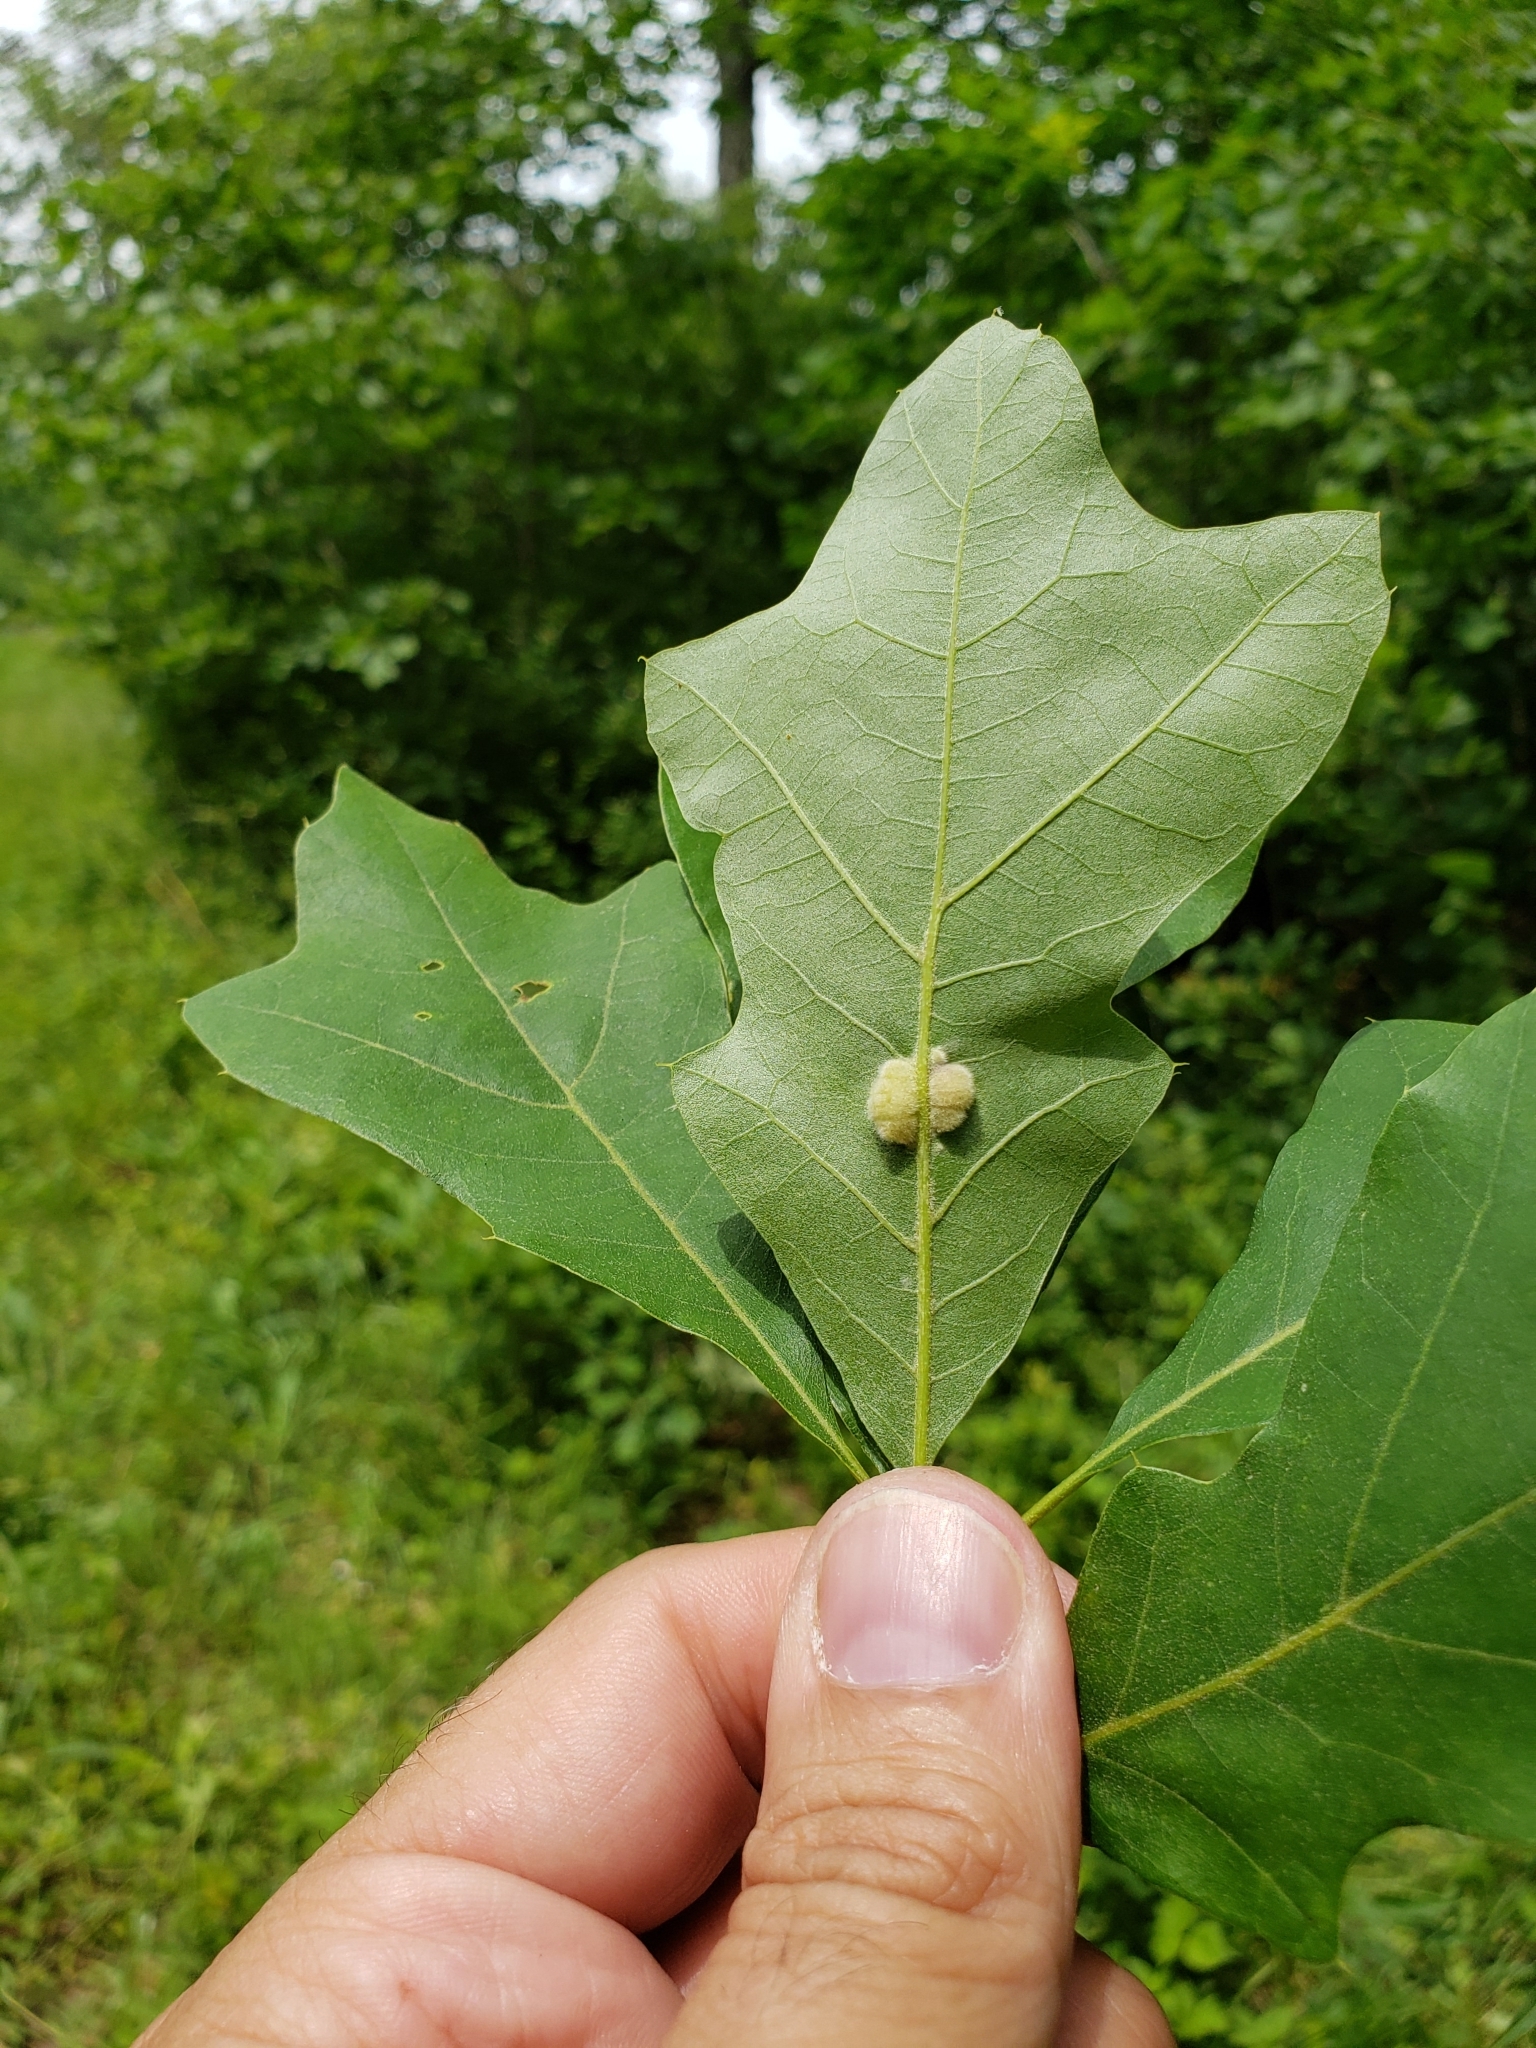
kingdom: Animalia
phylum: Arthropoda
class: Insecta
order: Diptera
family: Cecidomyiidae
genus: Macrodiplosis
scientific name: Macrodiplosis niveipila
